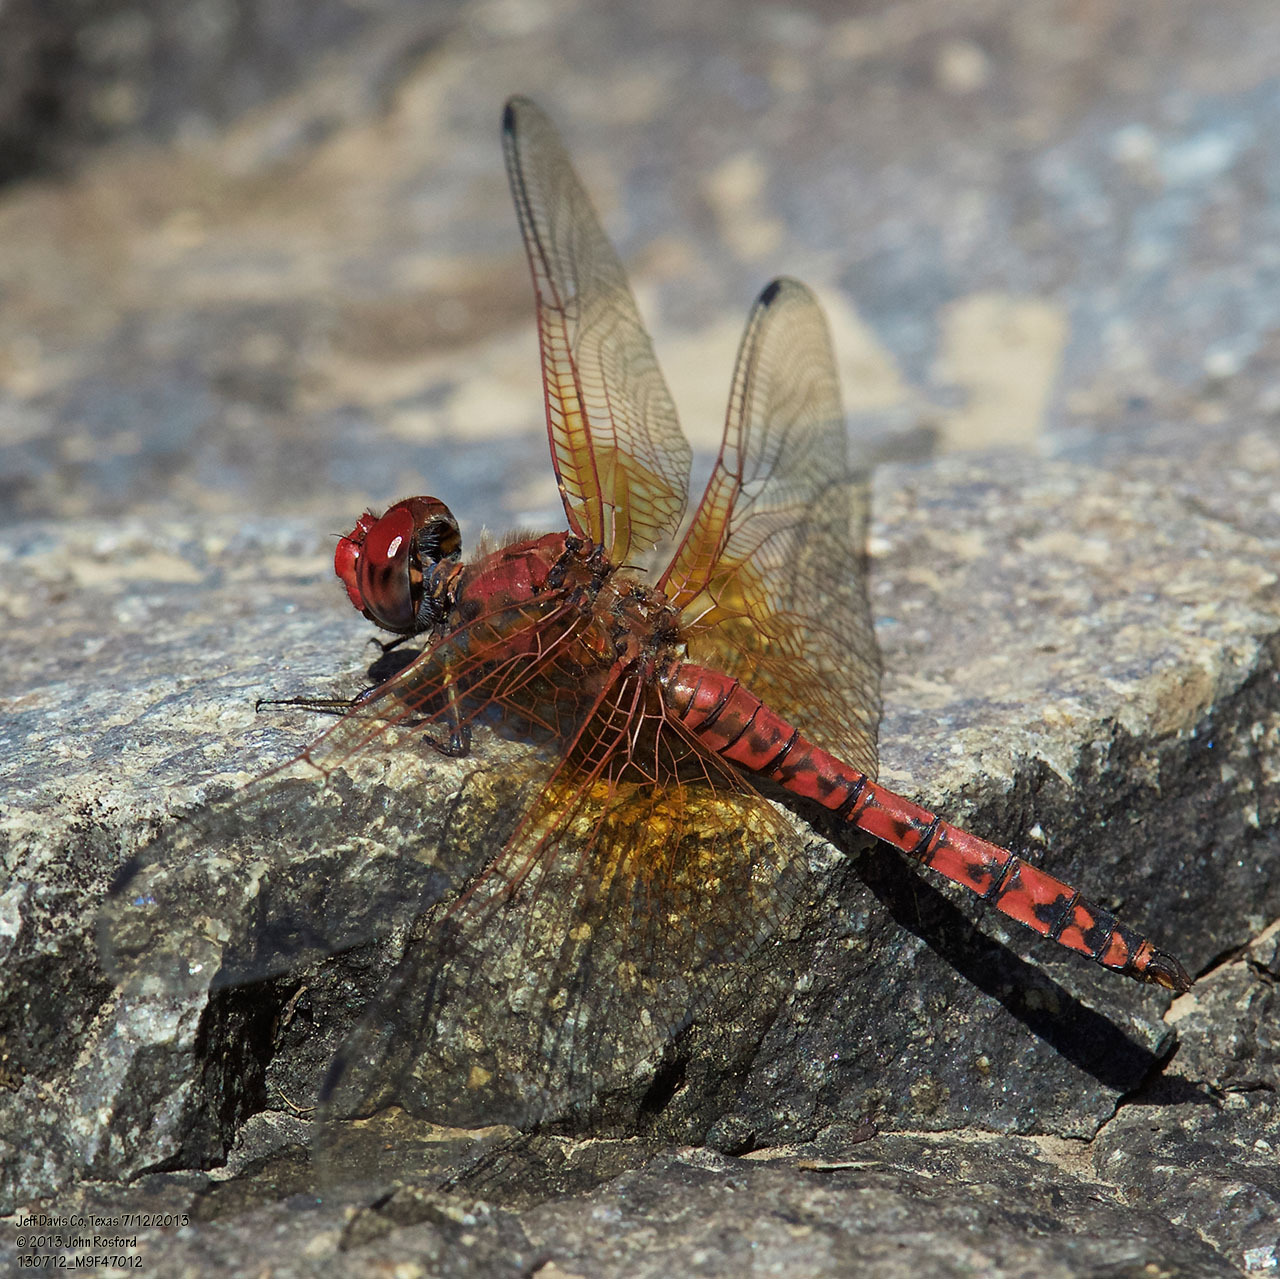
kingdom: Animalia
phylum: Arthropoda
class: Insecta
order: Odonata
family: Libellulidae
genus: Paltothemis
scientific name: Paltothemis lineatipes
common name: Red rock skimmer
